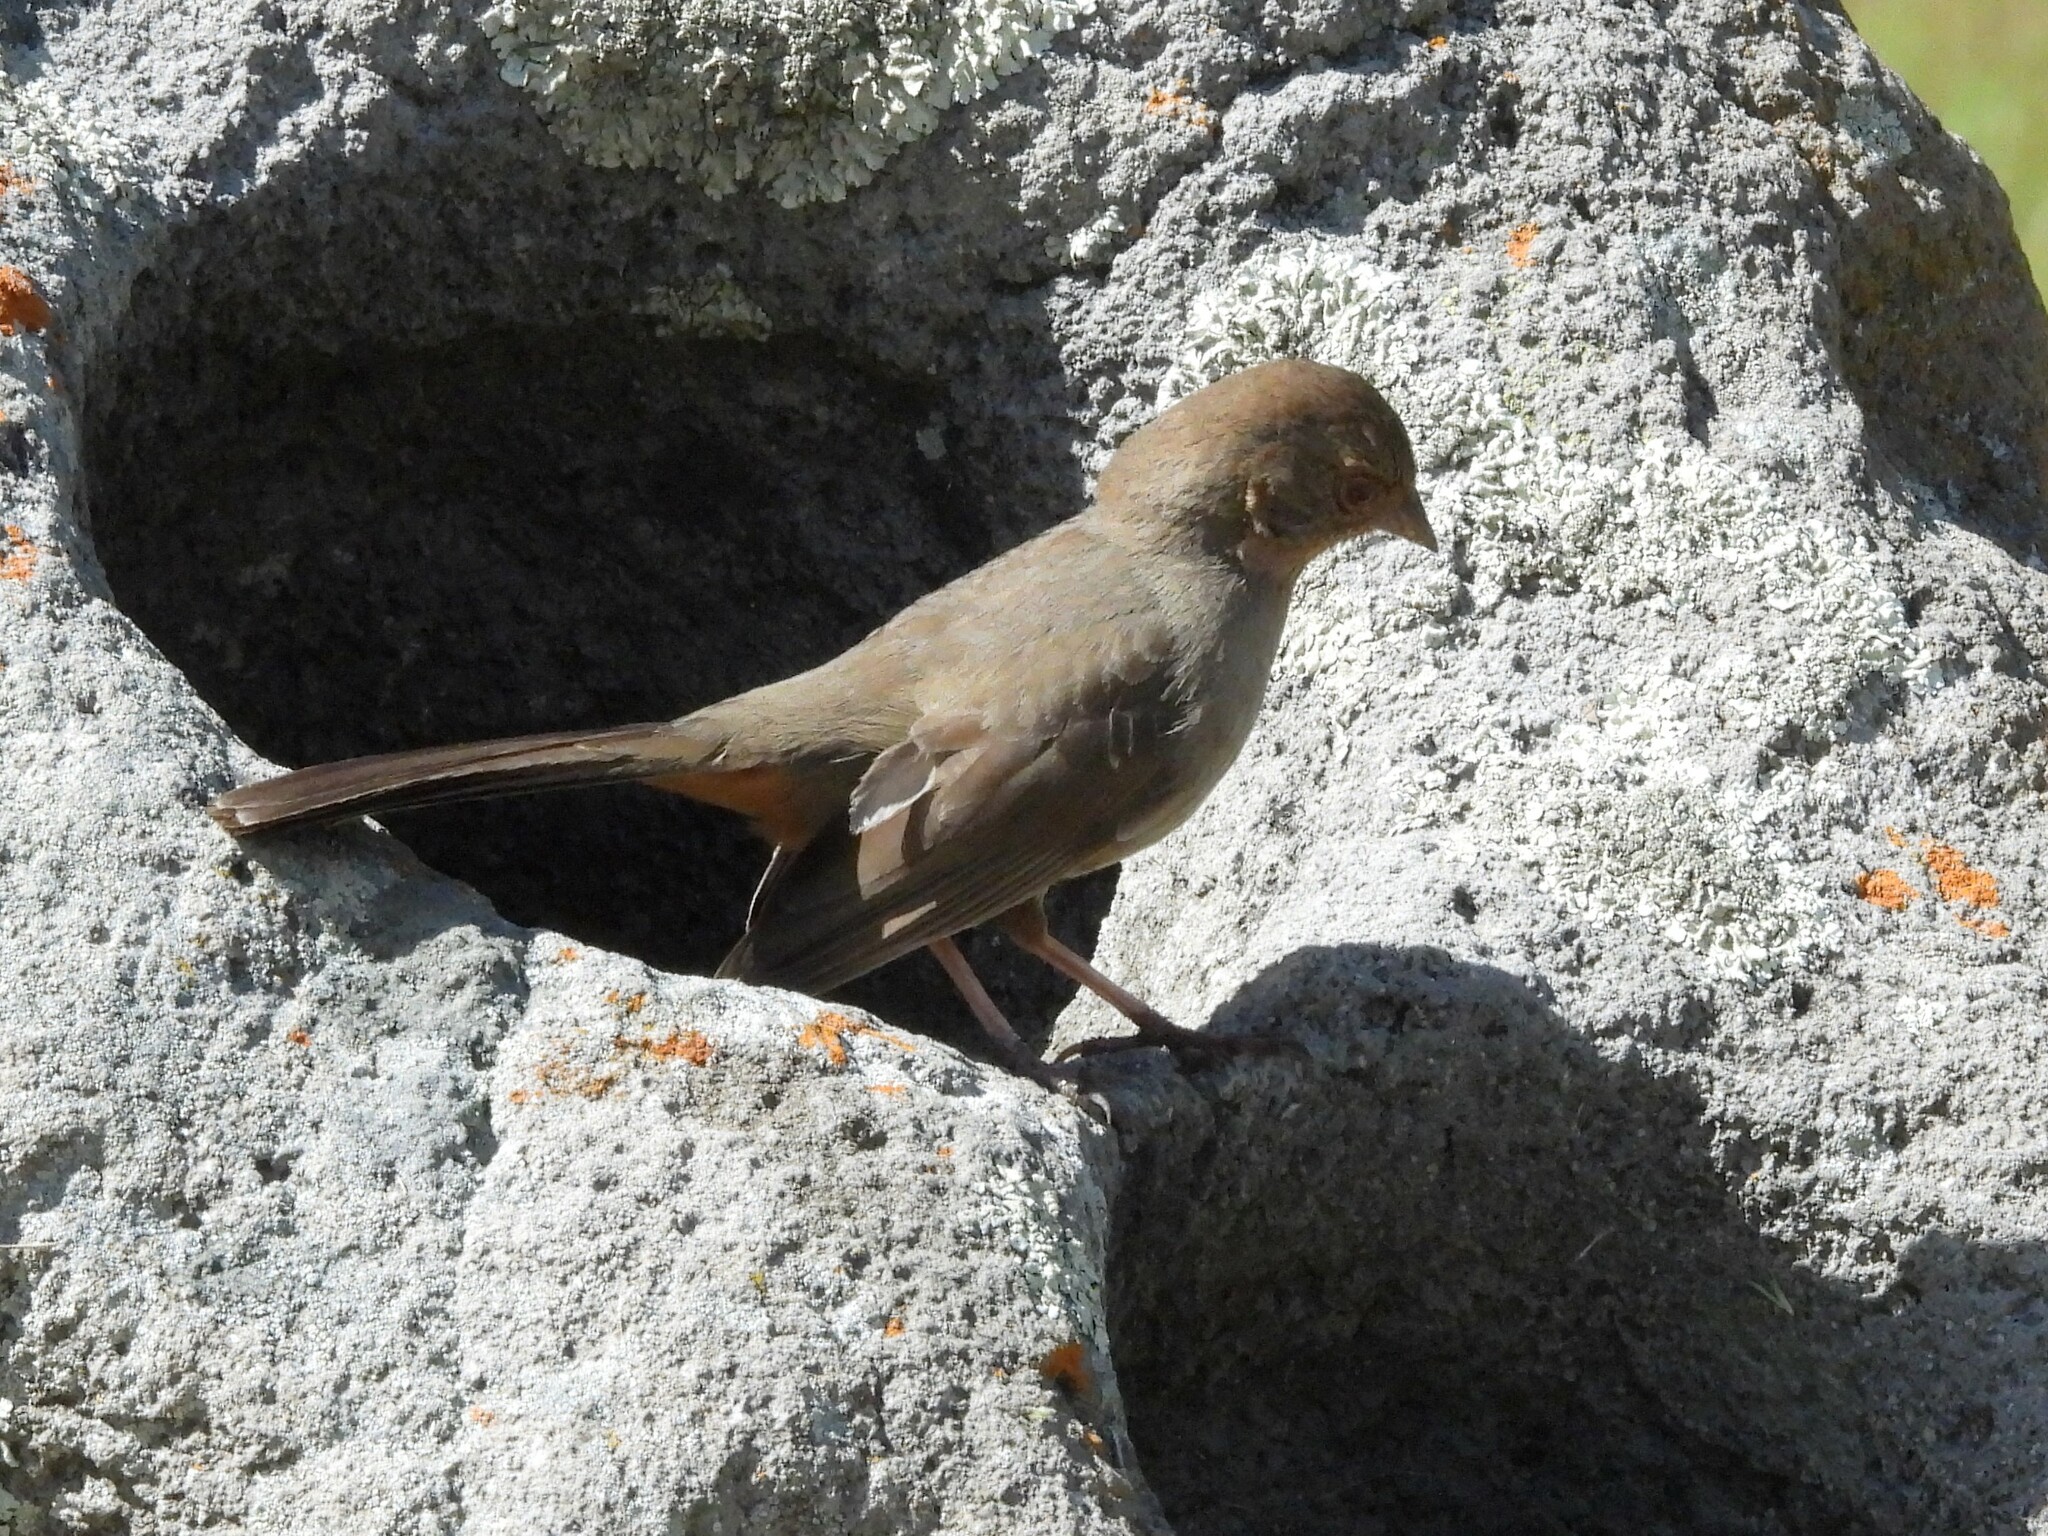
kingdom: Animalia
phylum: Chordata
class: Aves
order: Passeriformes
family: Passerellidae
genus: Melozone
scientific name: Melozone crissalis
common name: California towhee
